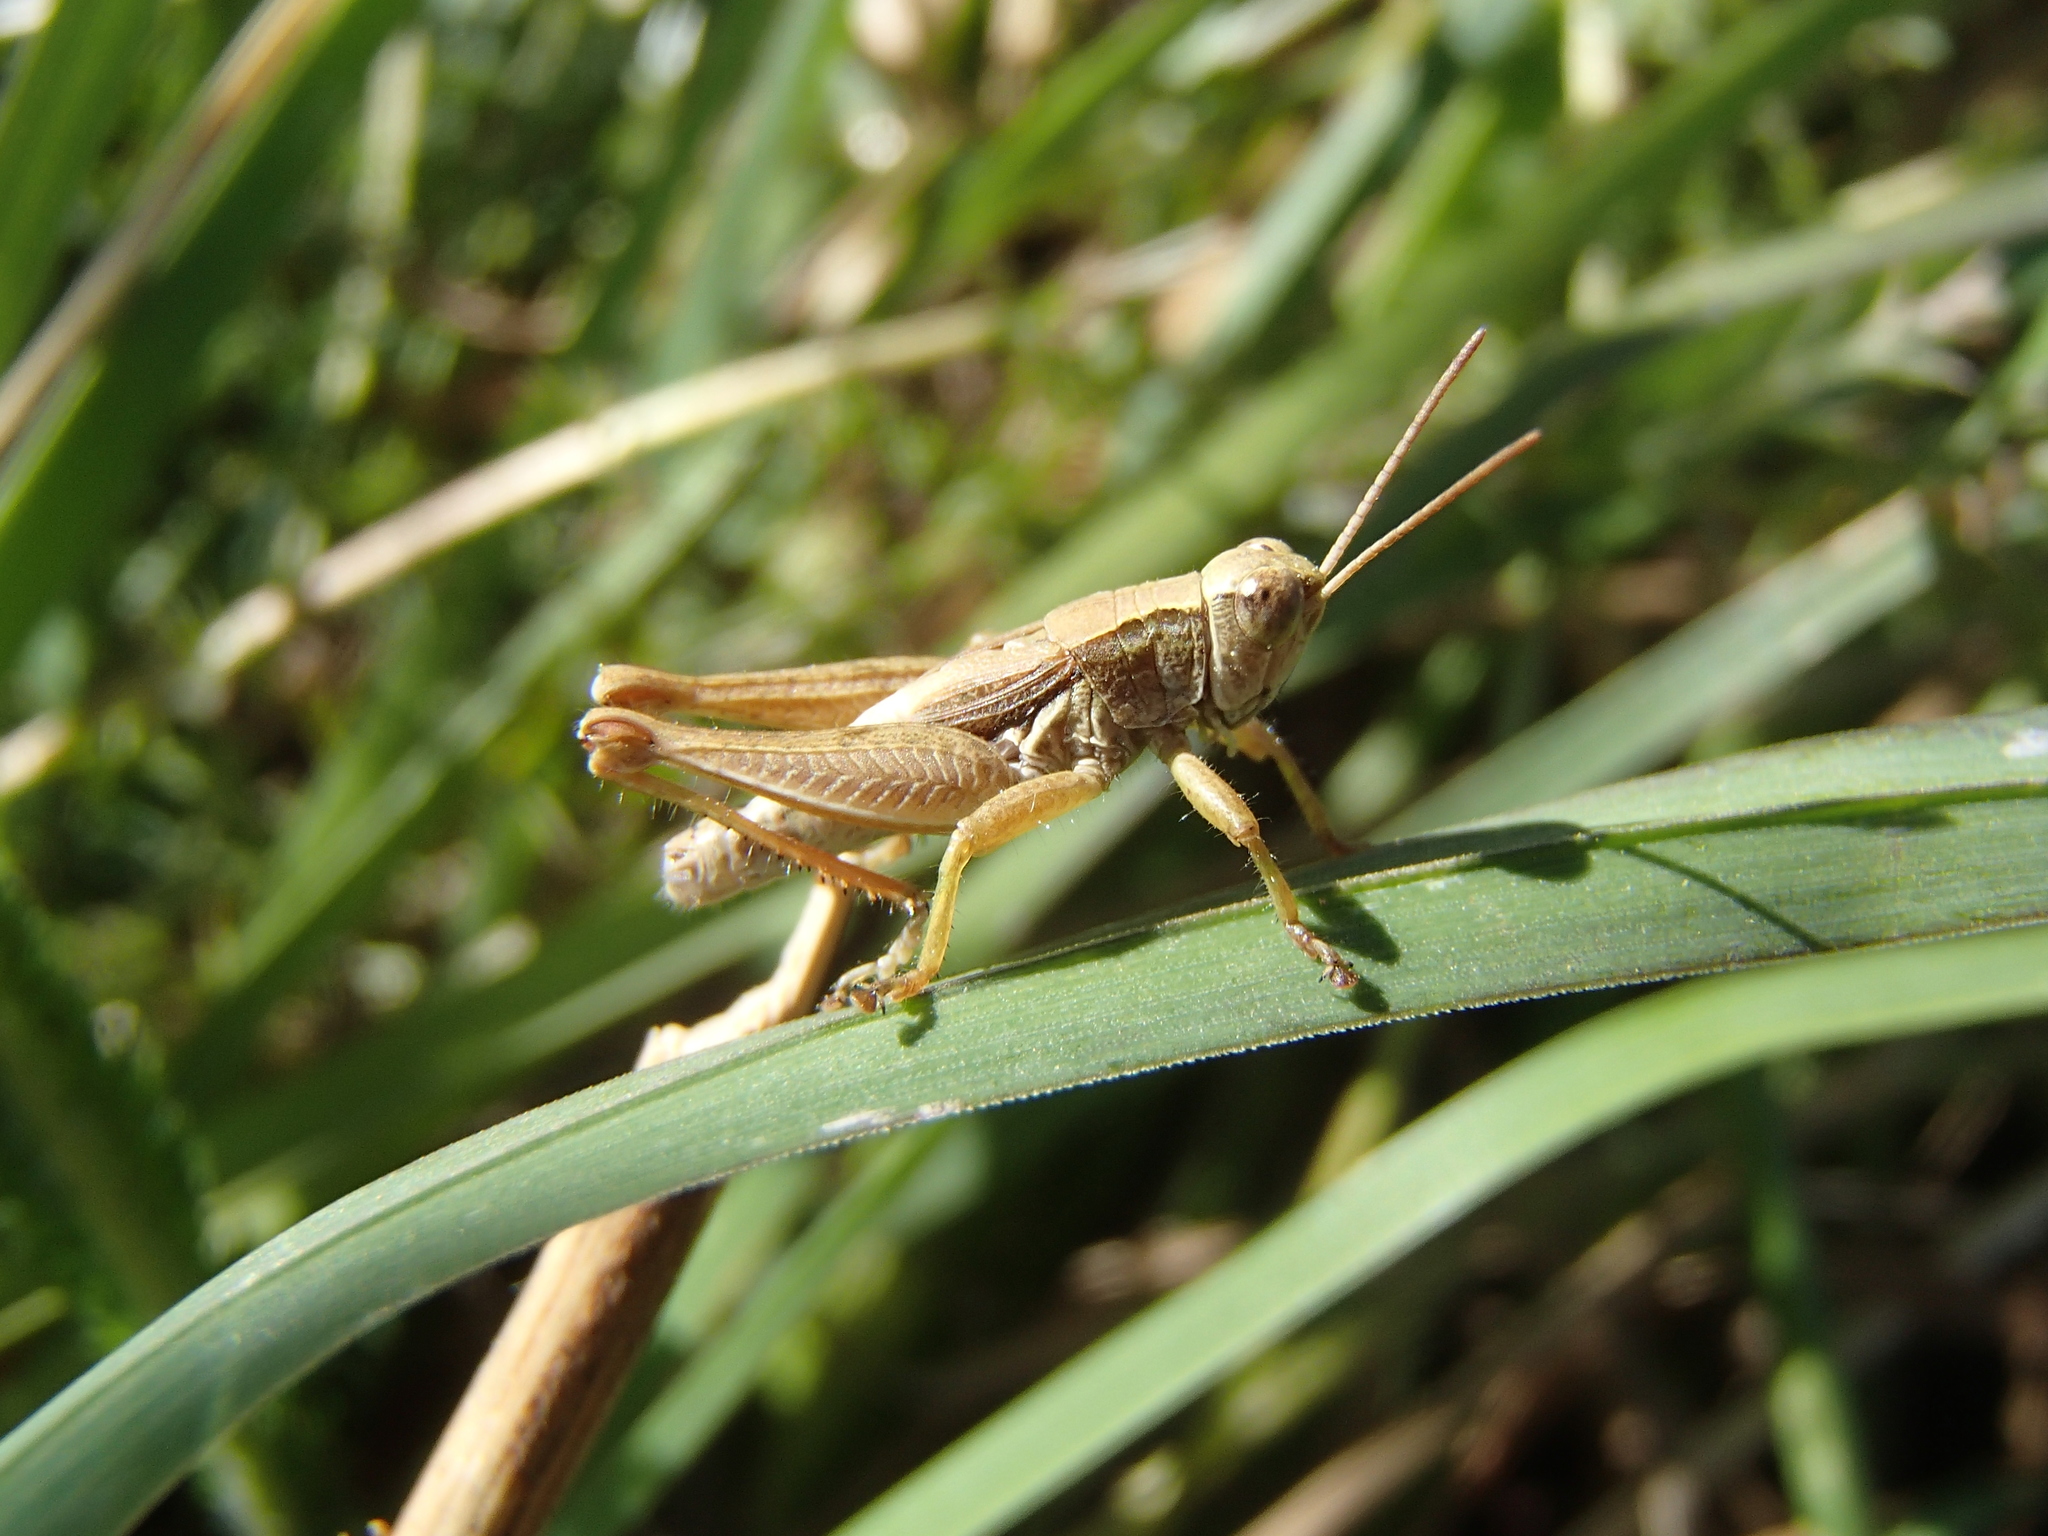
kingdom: Animalia
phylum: Arthropoda
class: Insecta
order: Orthoptera
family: Acrididae
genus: Phaulacridium
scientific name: Phaulacridium marginale
